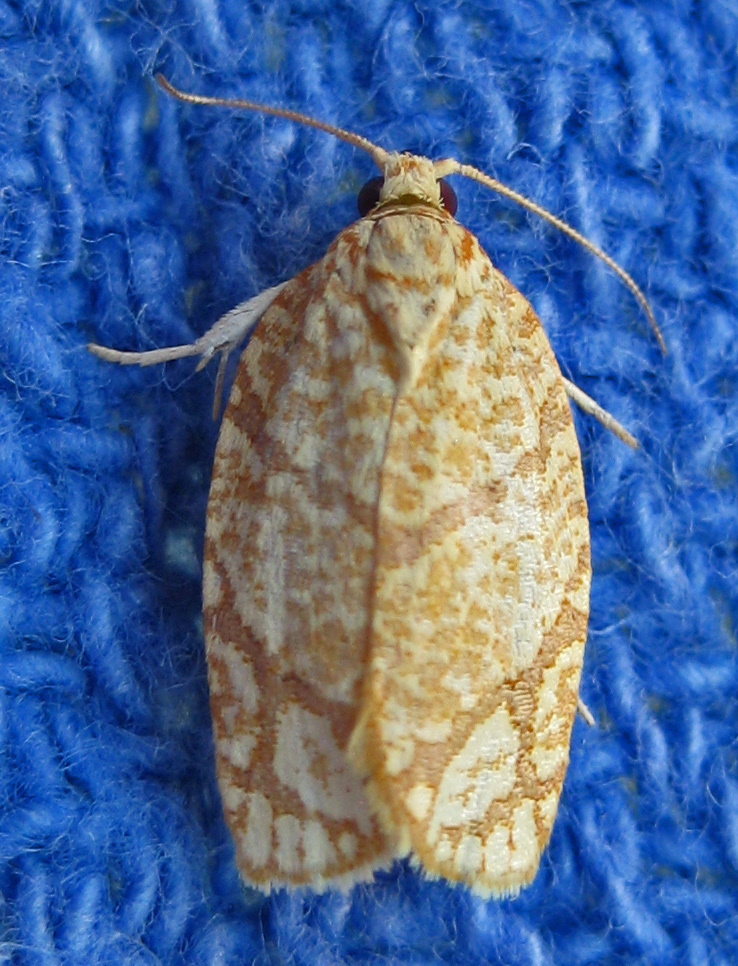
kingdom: Animalia
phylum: Arthropoda
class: Insecta
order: Lepidoptera
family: Tortricidae
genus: Argyrotaenia
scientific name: Argyrotaenia quercifoliana
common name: Yellow-winged oak leafroller moth
